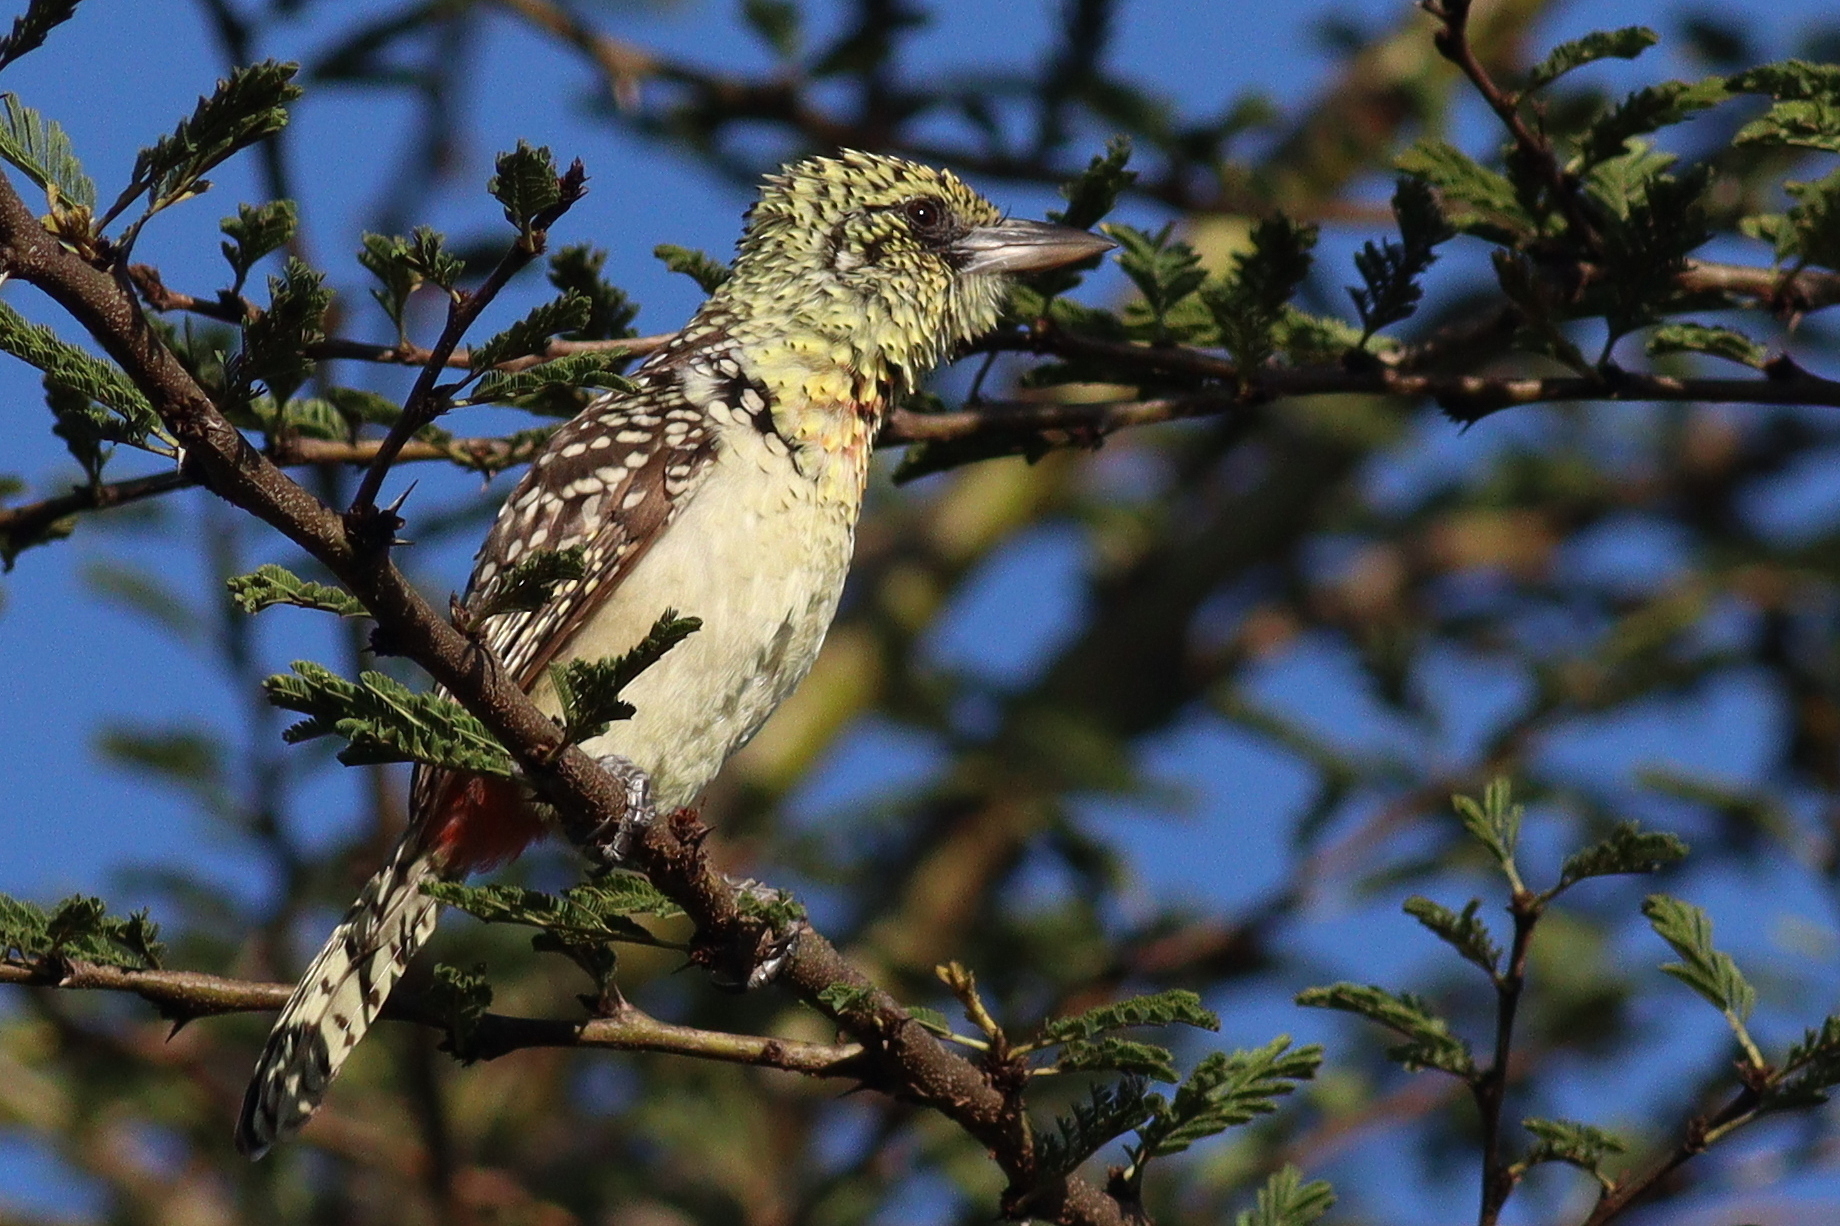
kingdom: Animalia
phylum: Chordata
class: Aves
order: Piciformes
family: Lybiidae
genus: Trachyphonus
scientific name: Trachyphonus darnaudii
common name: D'arnaud's barbet
